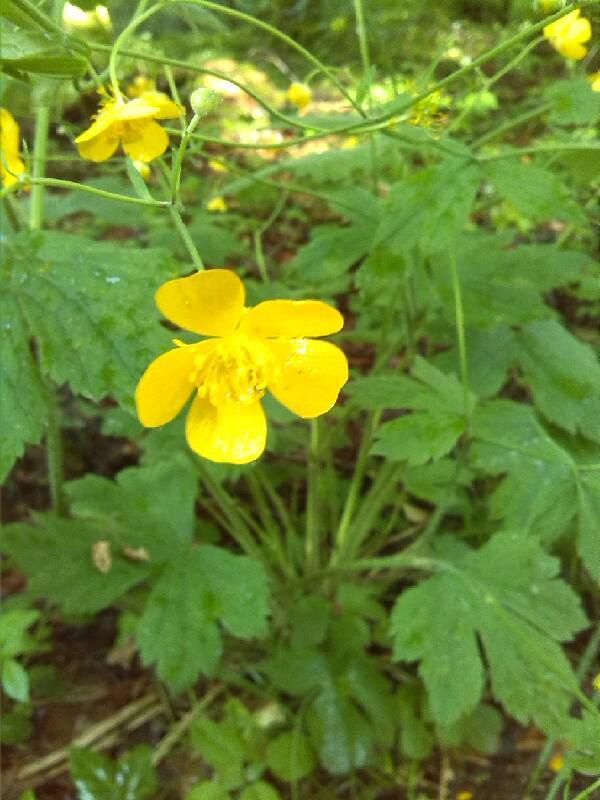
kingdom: Plantae
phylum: Tracheophyta
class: Magnoliopsida
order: Ranunculales
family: Ranunculaceae
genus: Ranunculus
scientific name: Ranunculus lanuginosus
